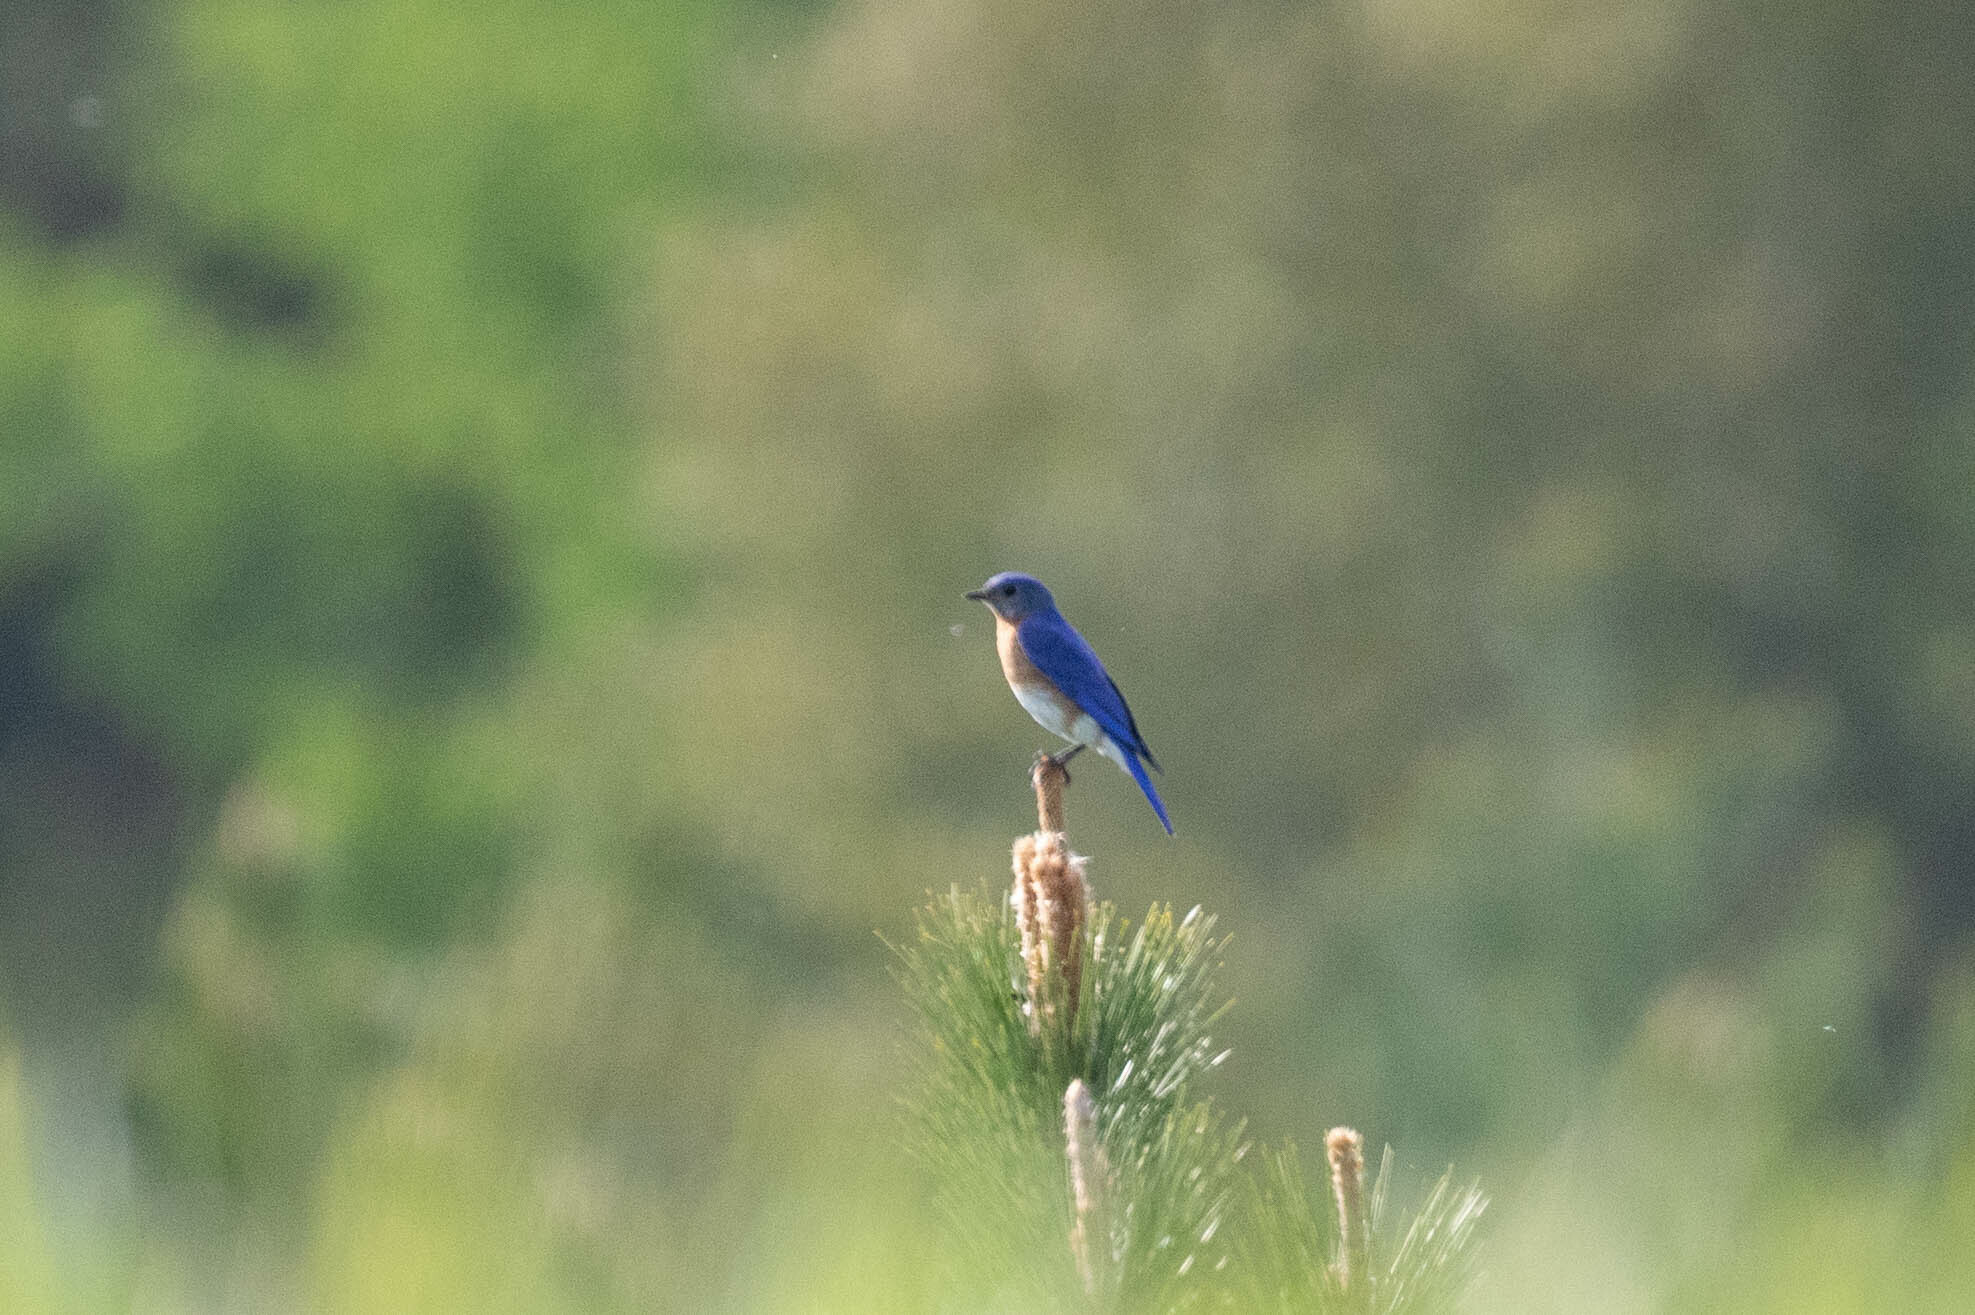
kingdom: Animalia
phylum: Chordata
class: Aves
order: Passeriformes
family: Turdidae
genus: Sialia
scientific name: Sialia sialis
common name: Eastern bluebird
